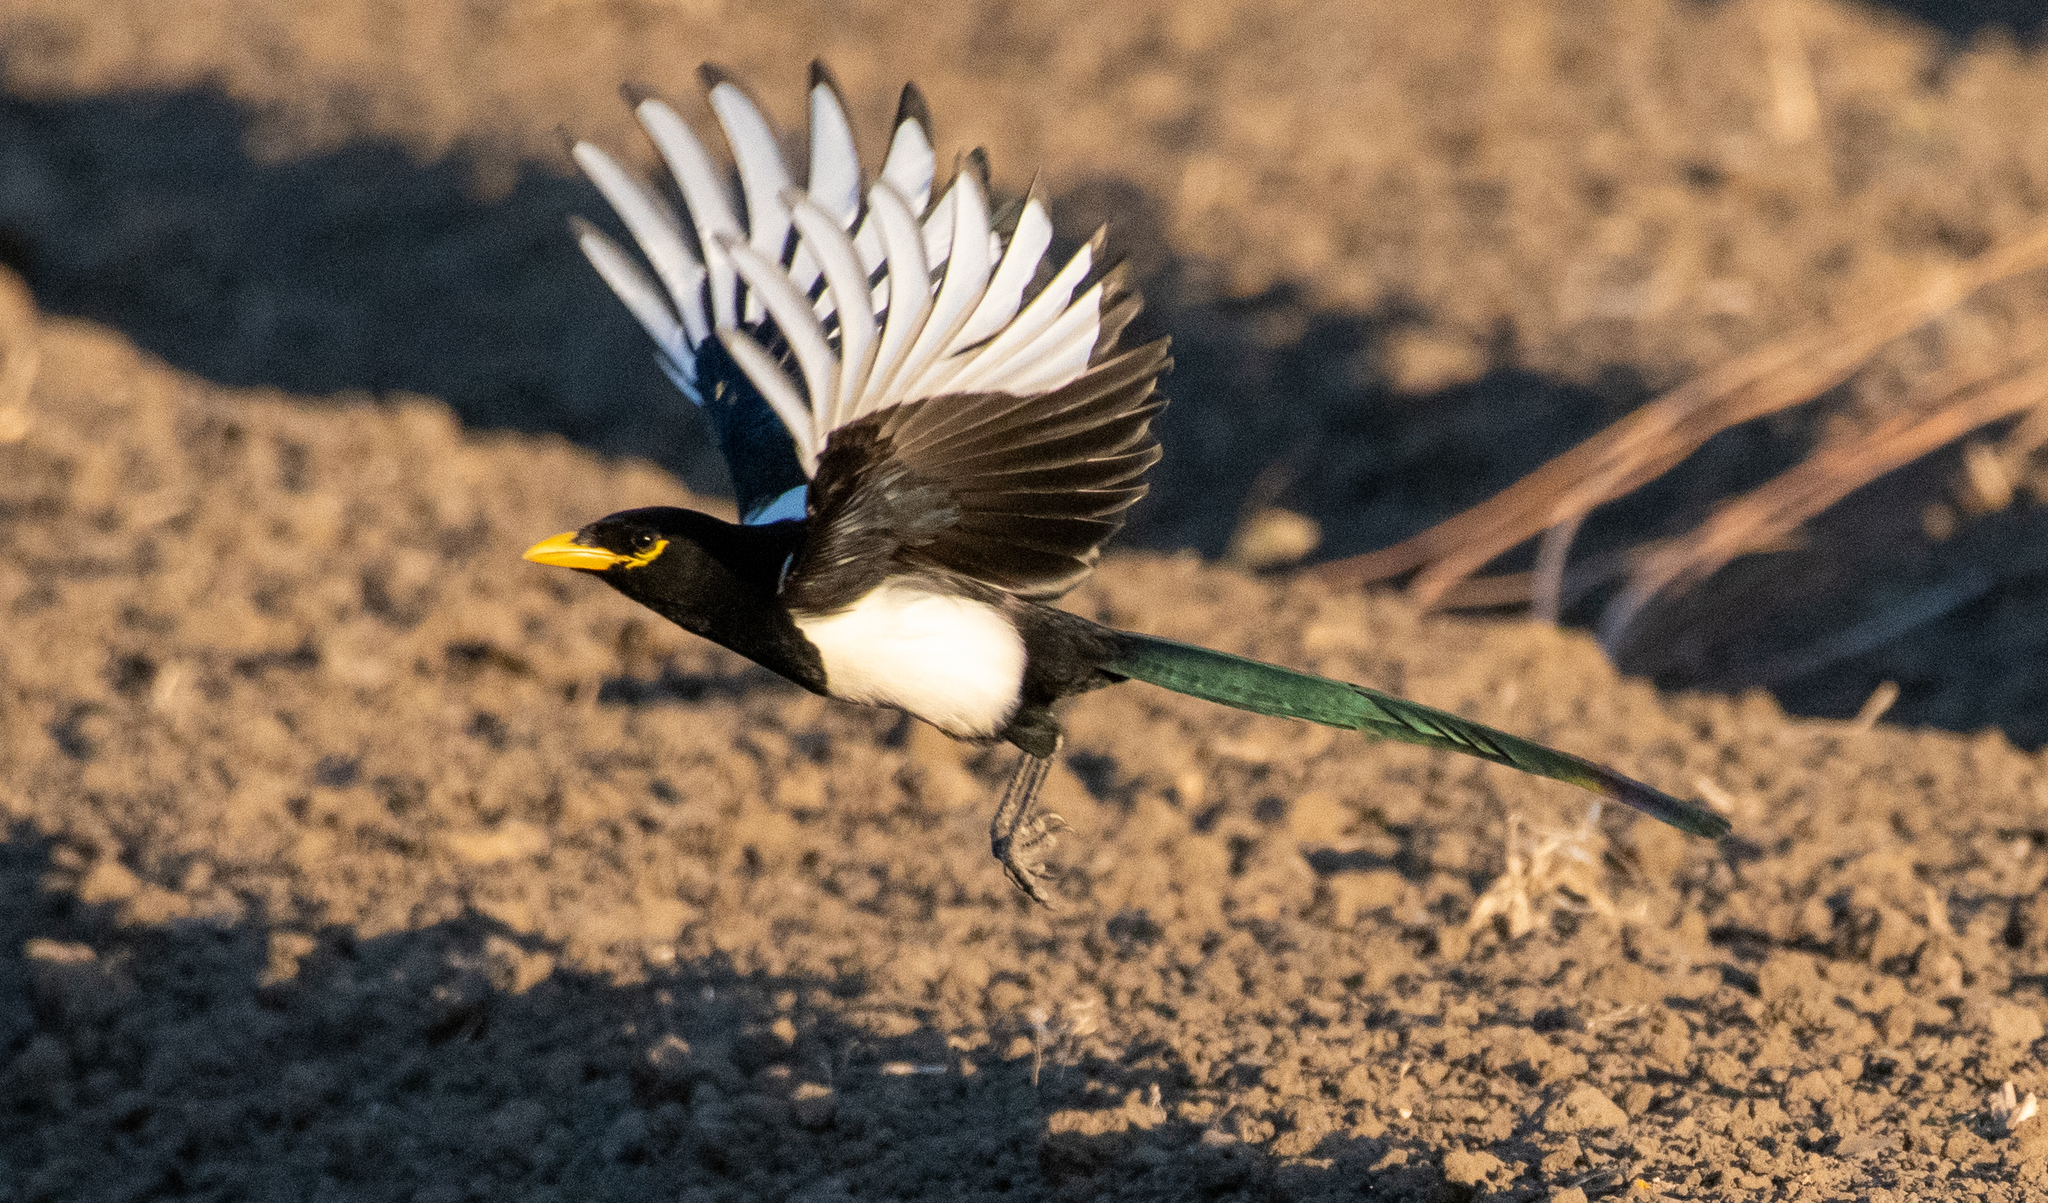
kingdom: Animalia
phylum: Chordata
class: Aves
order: Passeriformes
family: Corvidae
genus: Pica
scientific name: Pica nuttalli
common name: Yellow-billed magpie
